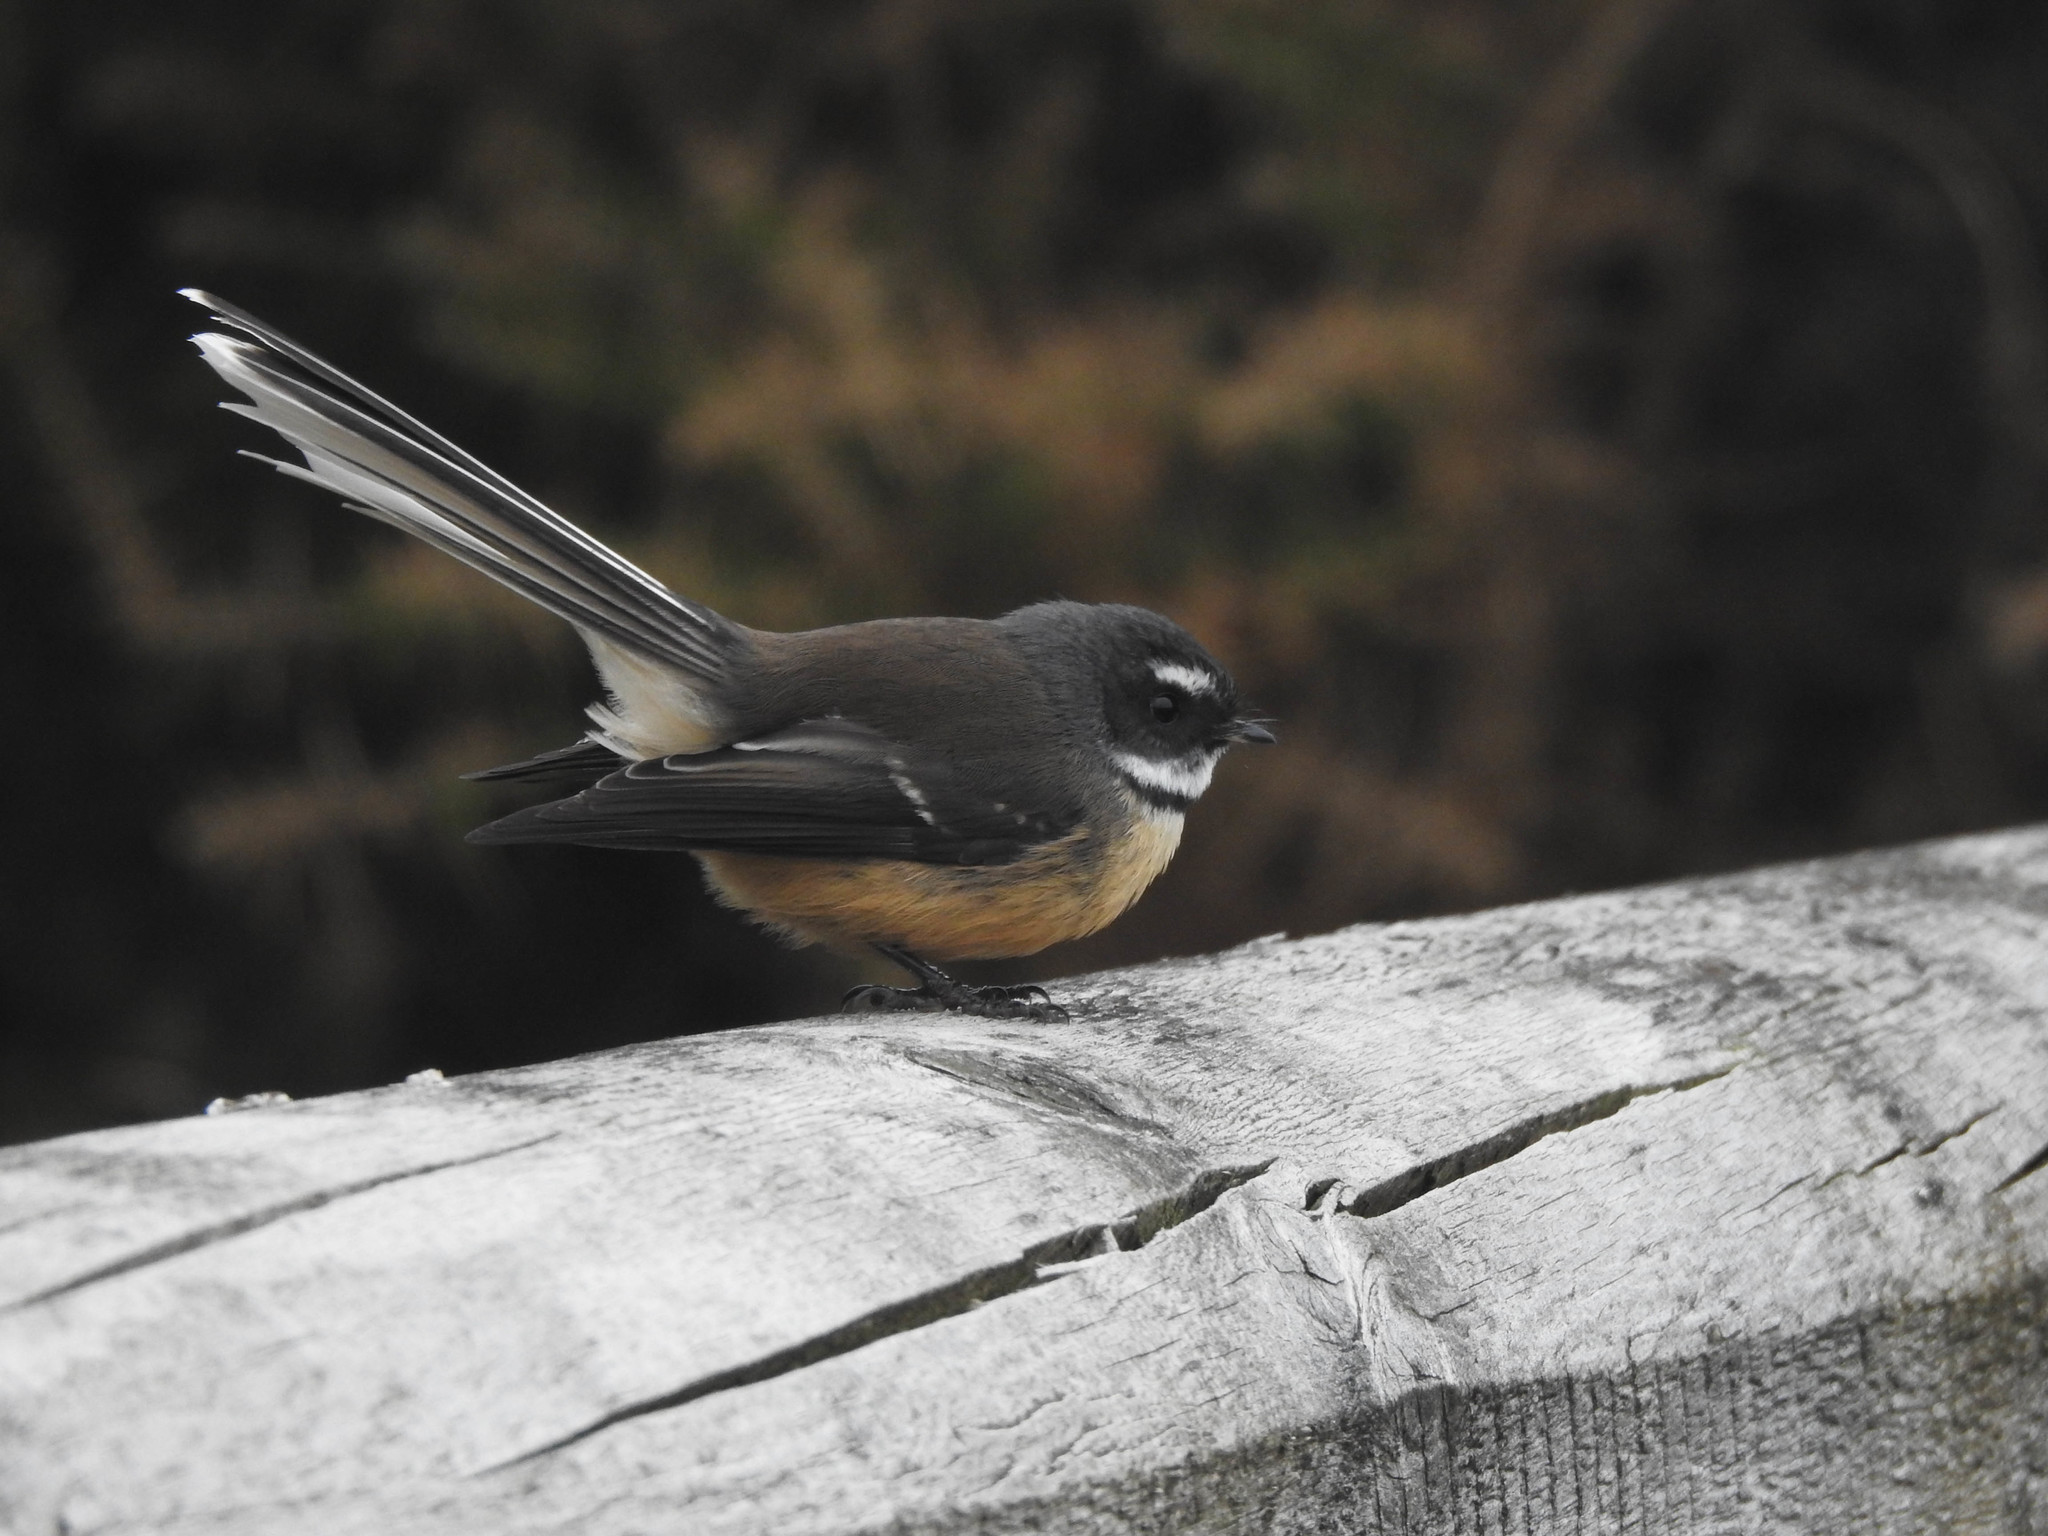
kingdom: Animalia
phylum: Chordata
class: Aves
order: Passeriformes
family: Rhipiduridae
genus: Rhipidura
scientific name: Rhipidura fuliginosa
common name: New zealand fantail
